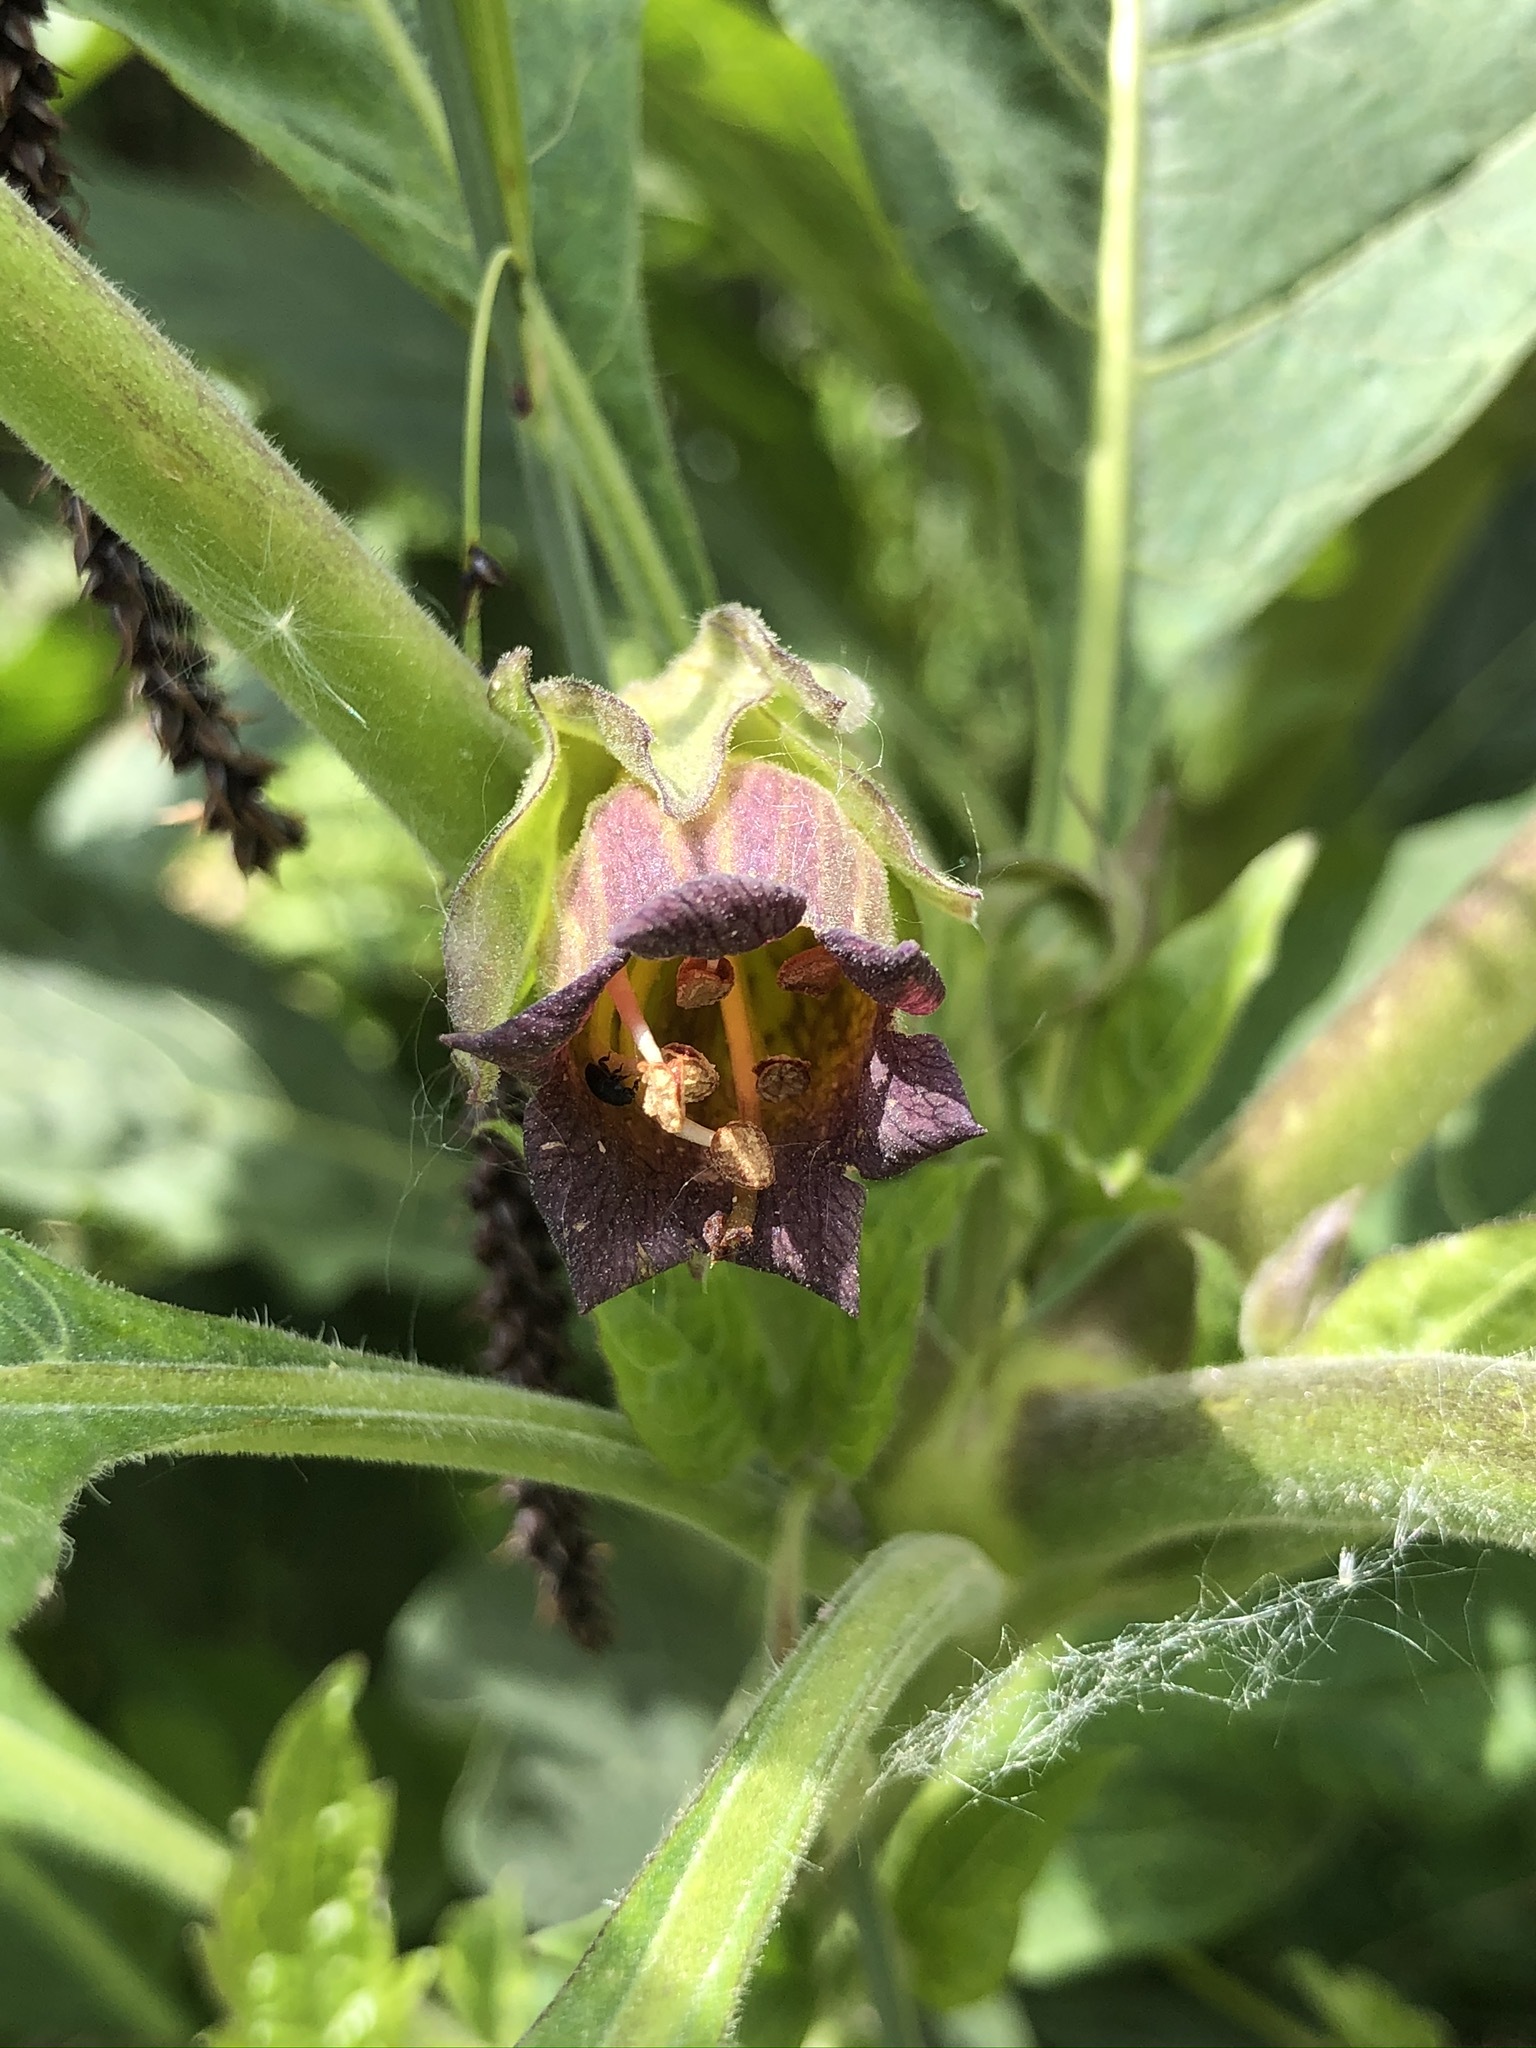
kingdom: Plantae
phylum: Tracheophyta
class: Magnoliopsida
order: Solanales
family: Solanaceae
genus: Atropa
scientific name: Atropa belladonna
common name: Deadly nightshade
